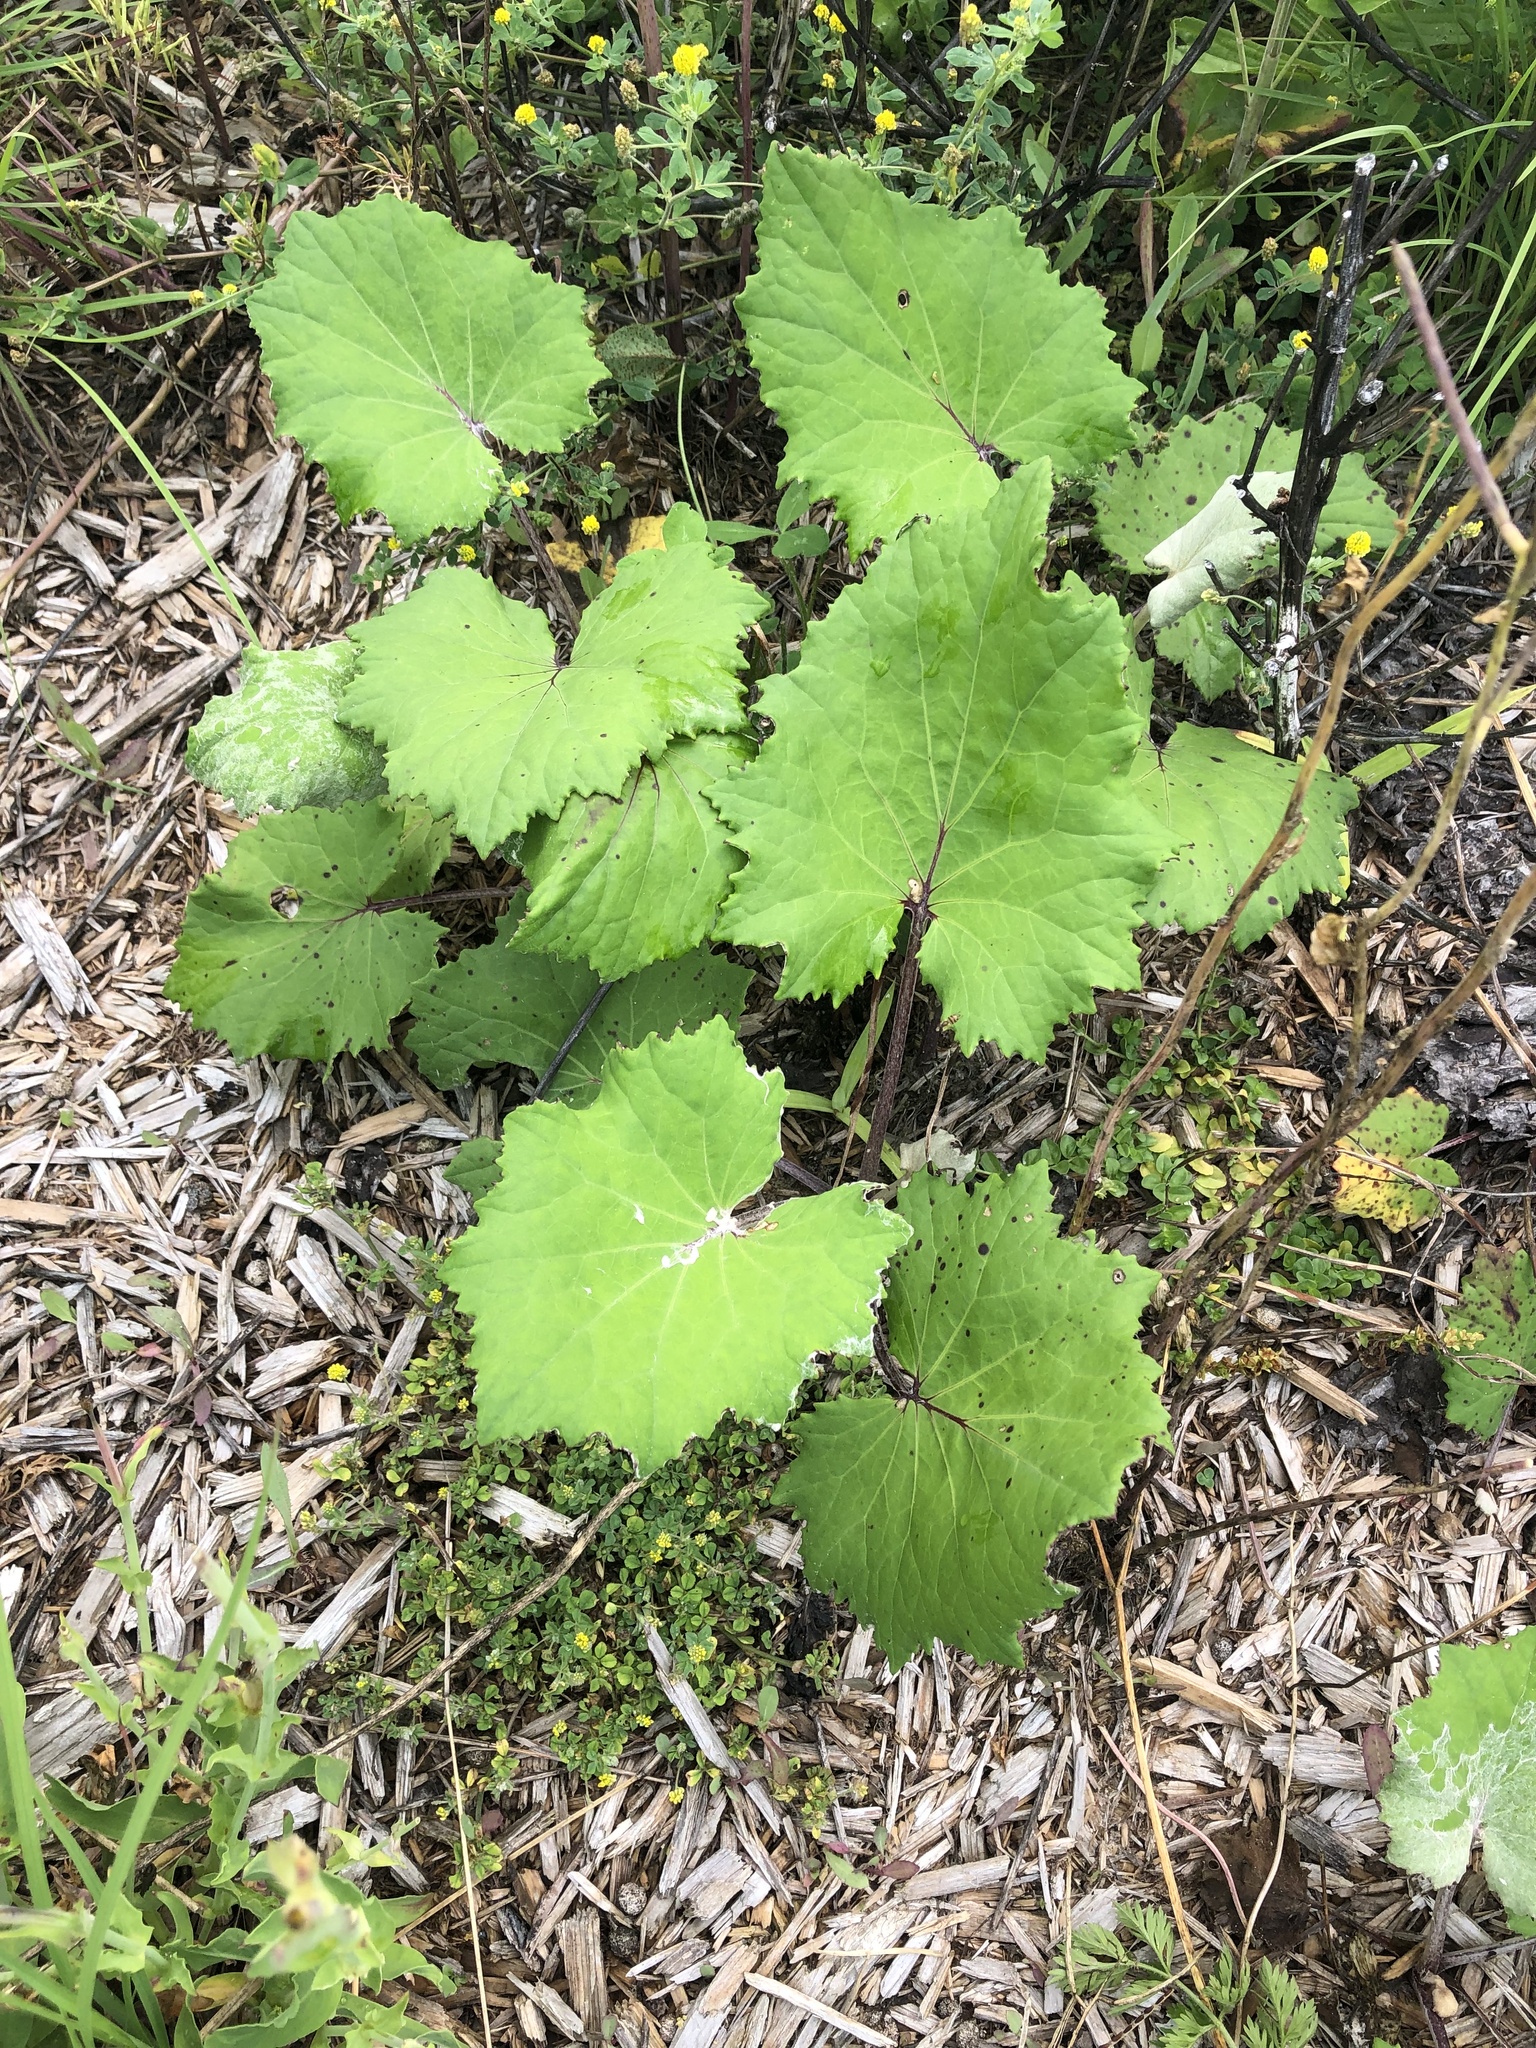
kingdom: Plantae
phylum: Tracheophyta
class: Magnoliopsida
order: Asterales
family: Asteraceae
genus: Tussilago
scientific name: Tussilago farfara
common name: Coltsfoot
